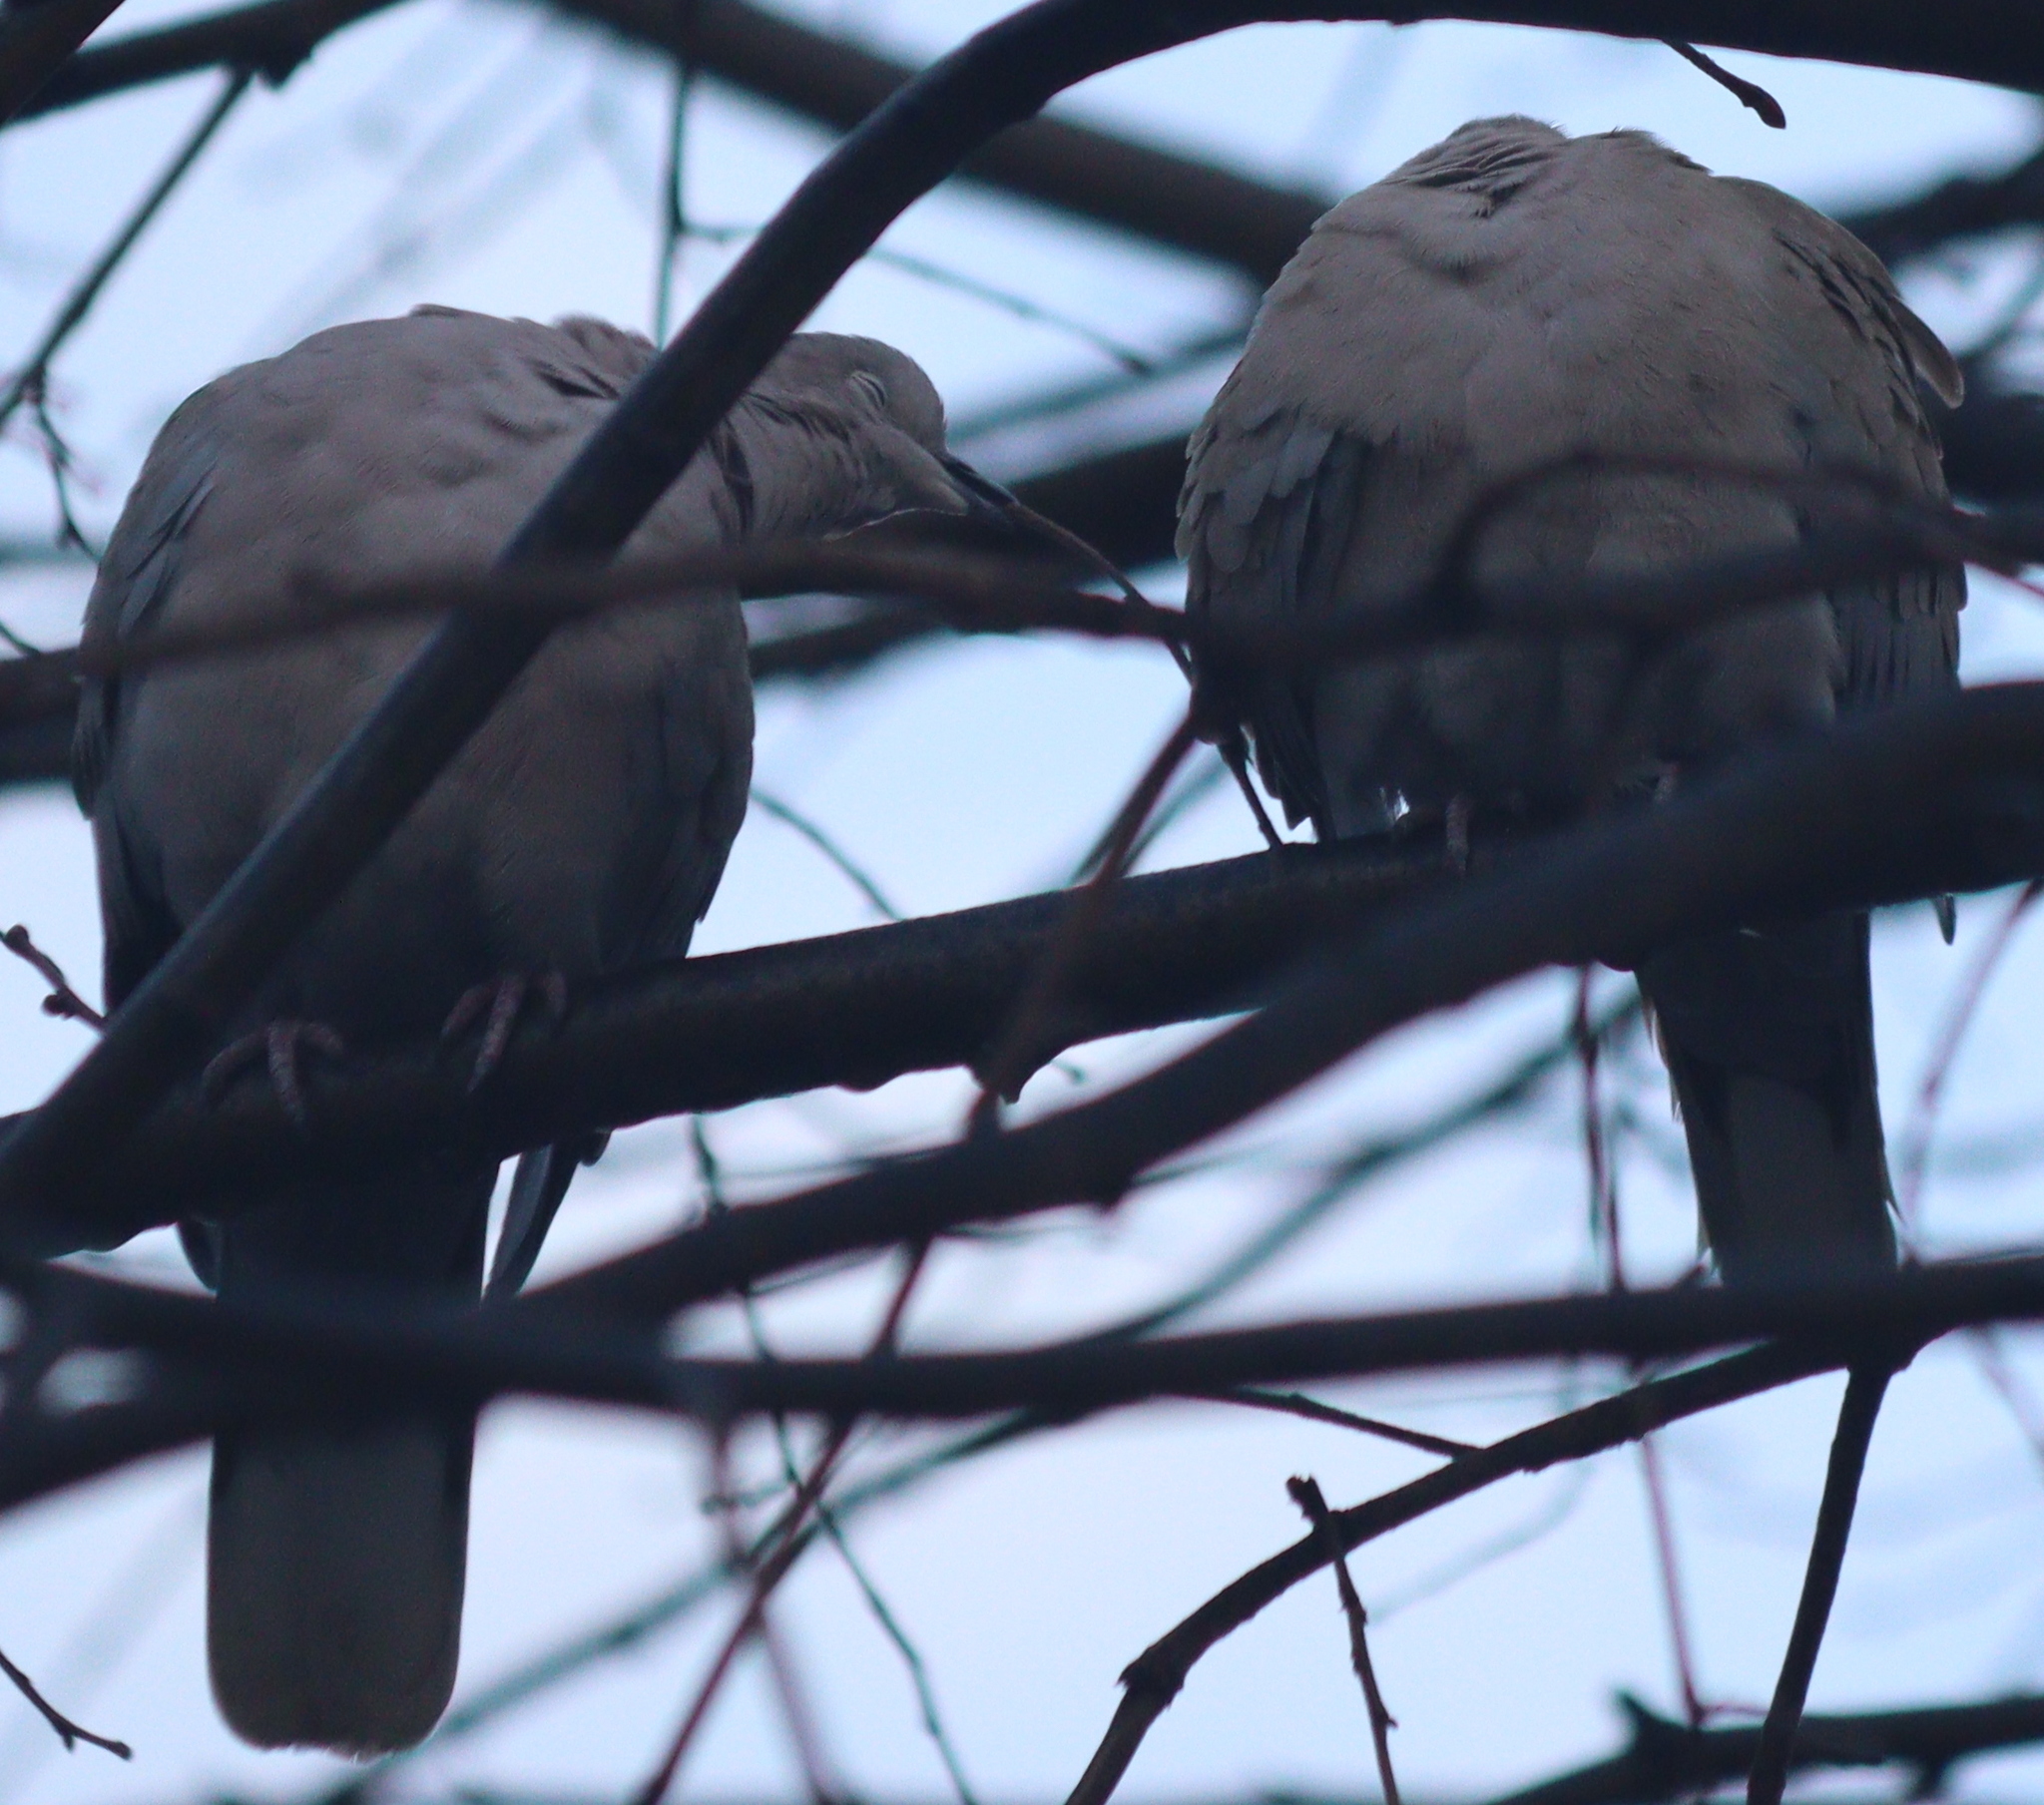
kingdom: Animalia
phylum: Chordata
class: Aves
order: Columbiformes
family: Columbidae
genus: Streptopelia
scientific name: Streptopelia decaocto
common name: Eurasian collared dove
